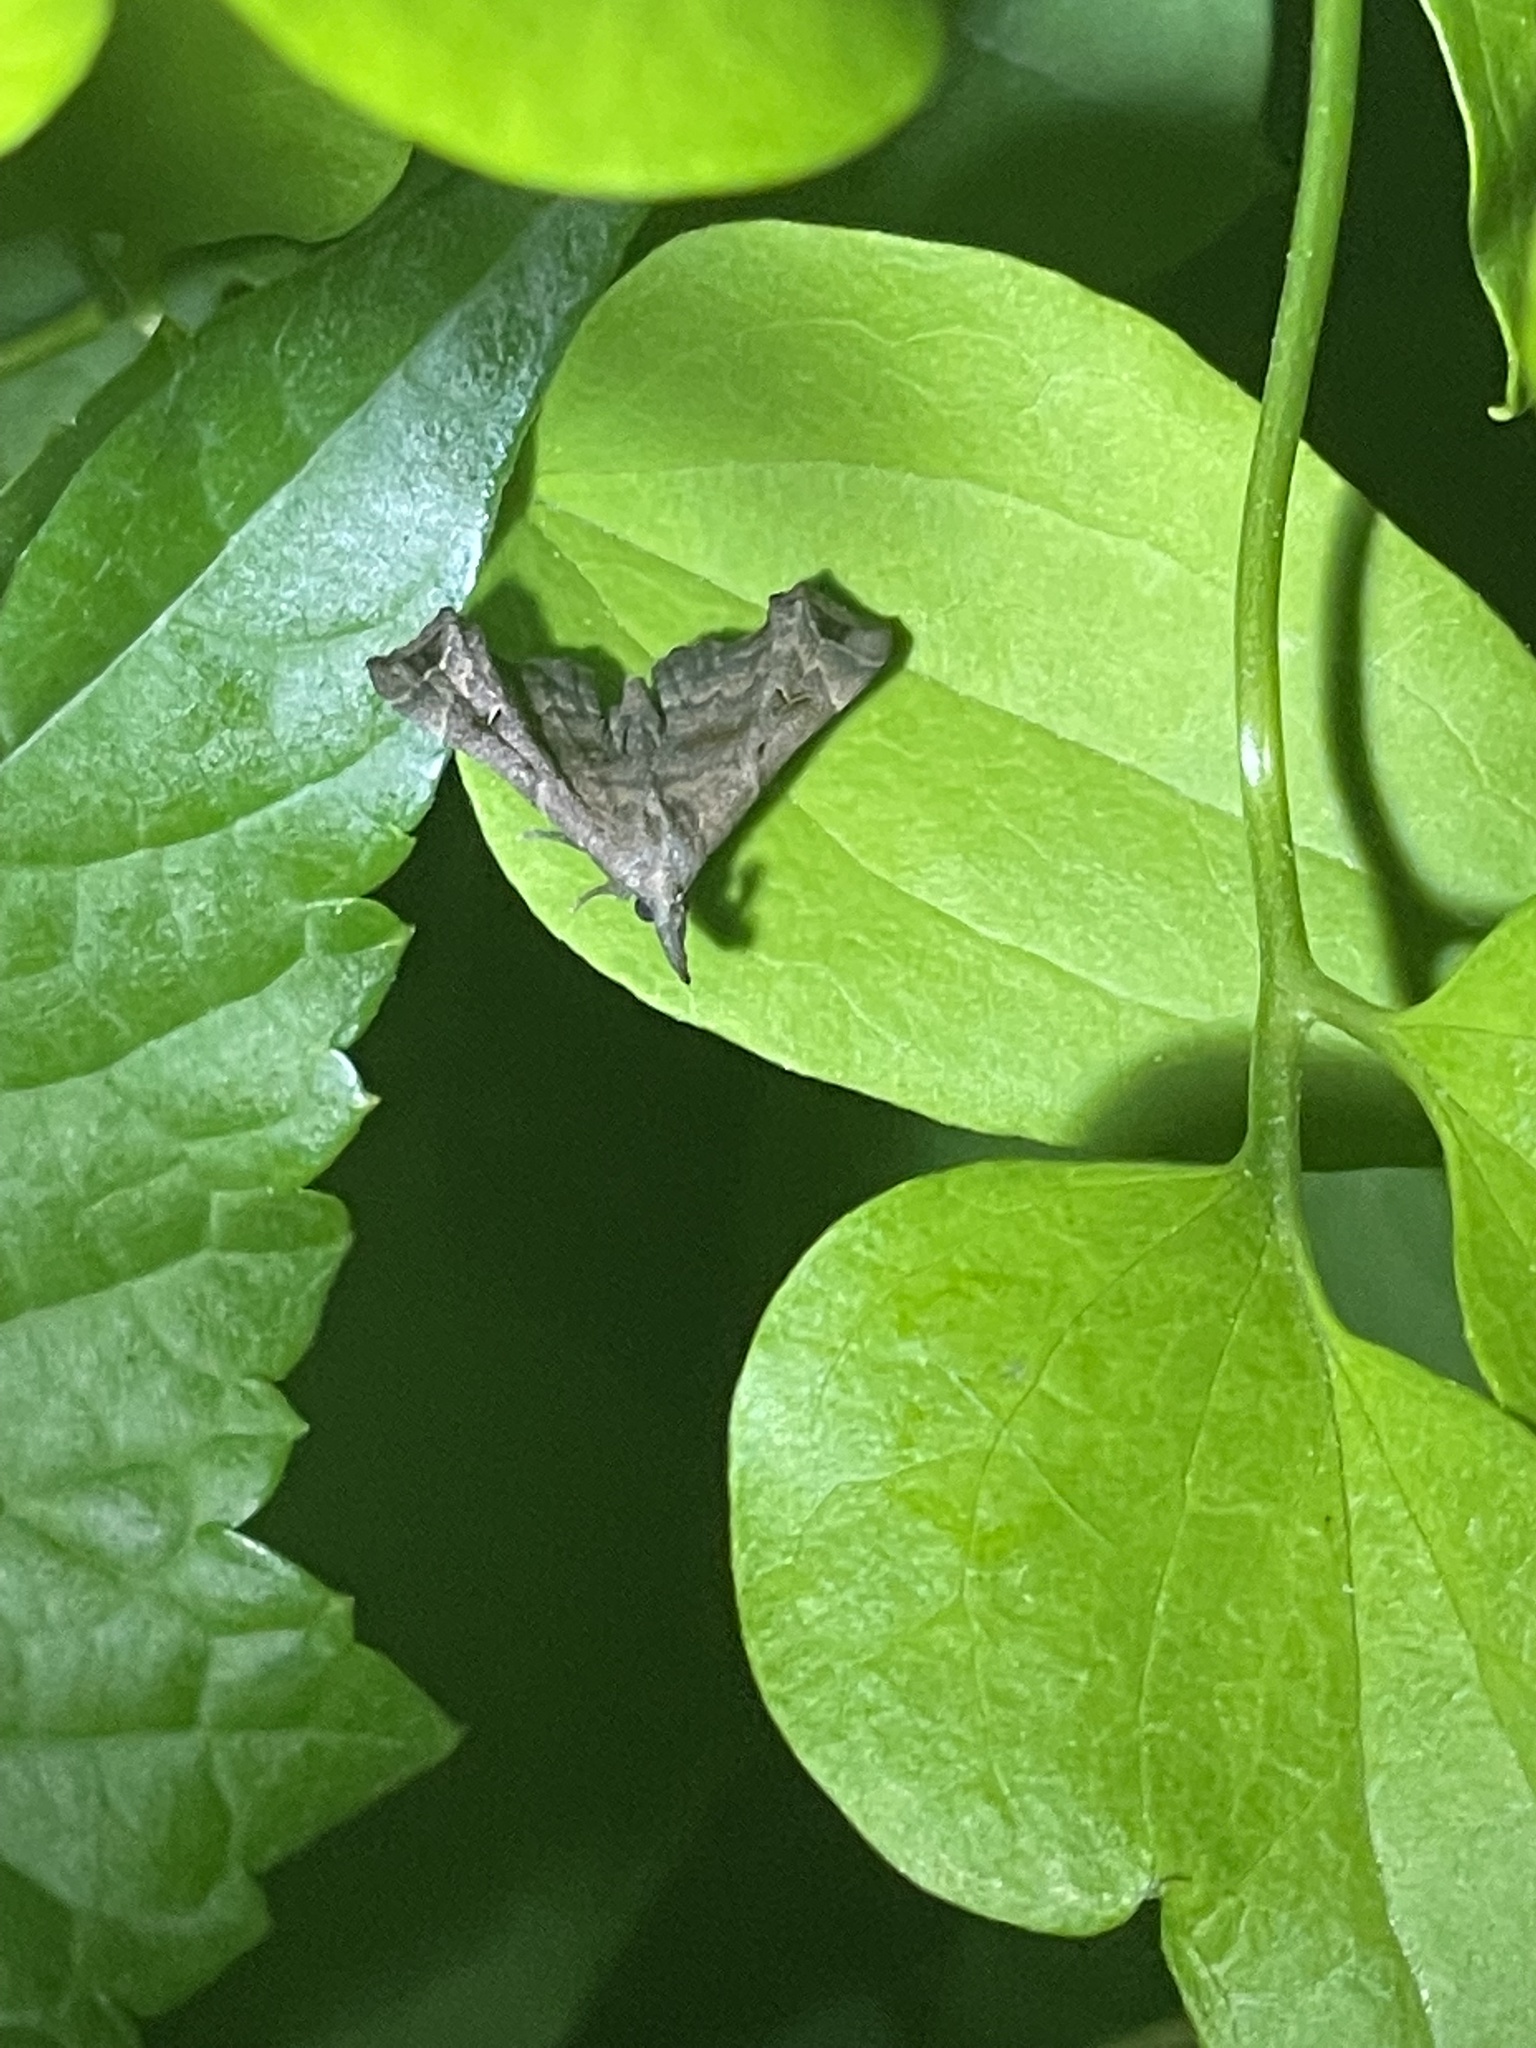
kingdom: Animalia
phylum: Arthropoda
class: Insecta
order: Lepidoptera
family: Erebidae
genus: Palthis
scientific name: Palthis asopialis
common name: Faint-spotted palthis moth
